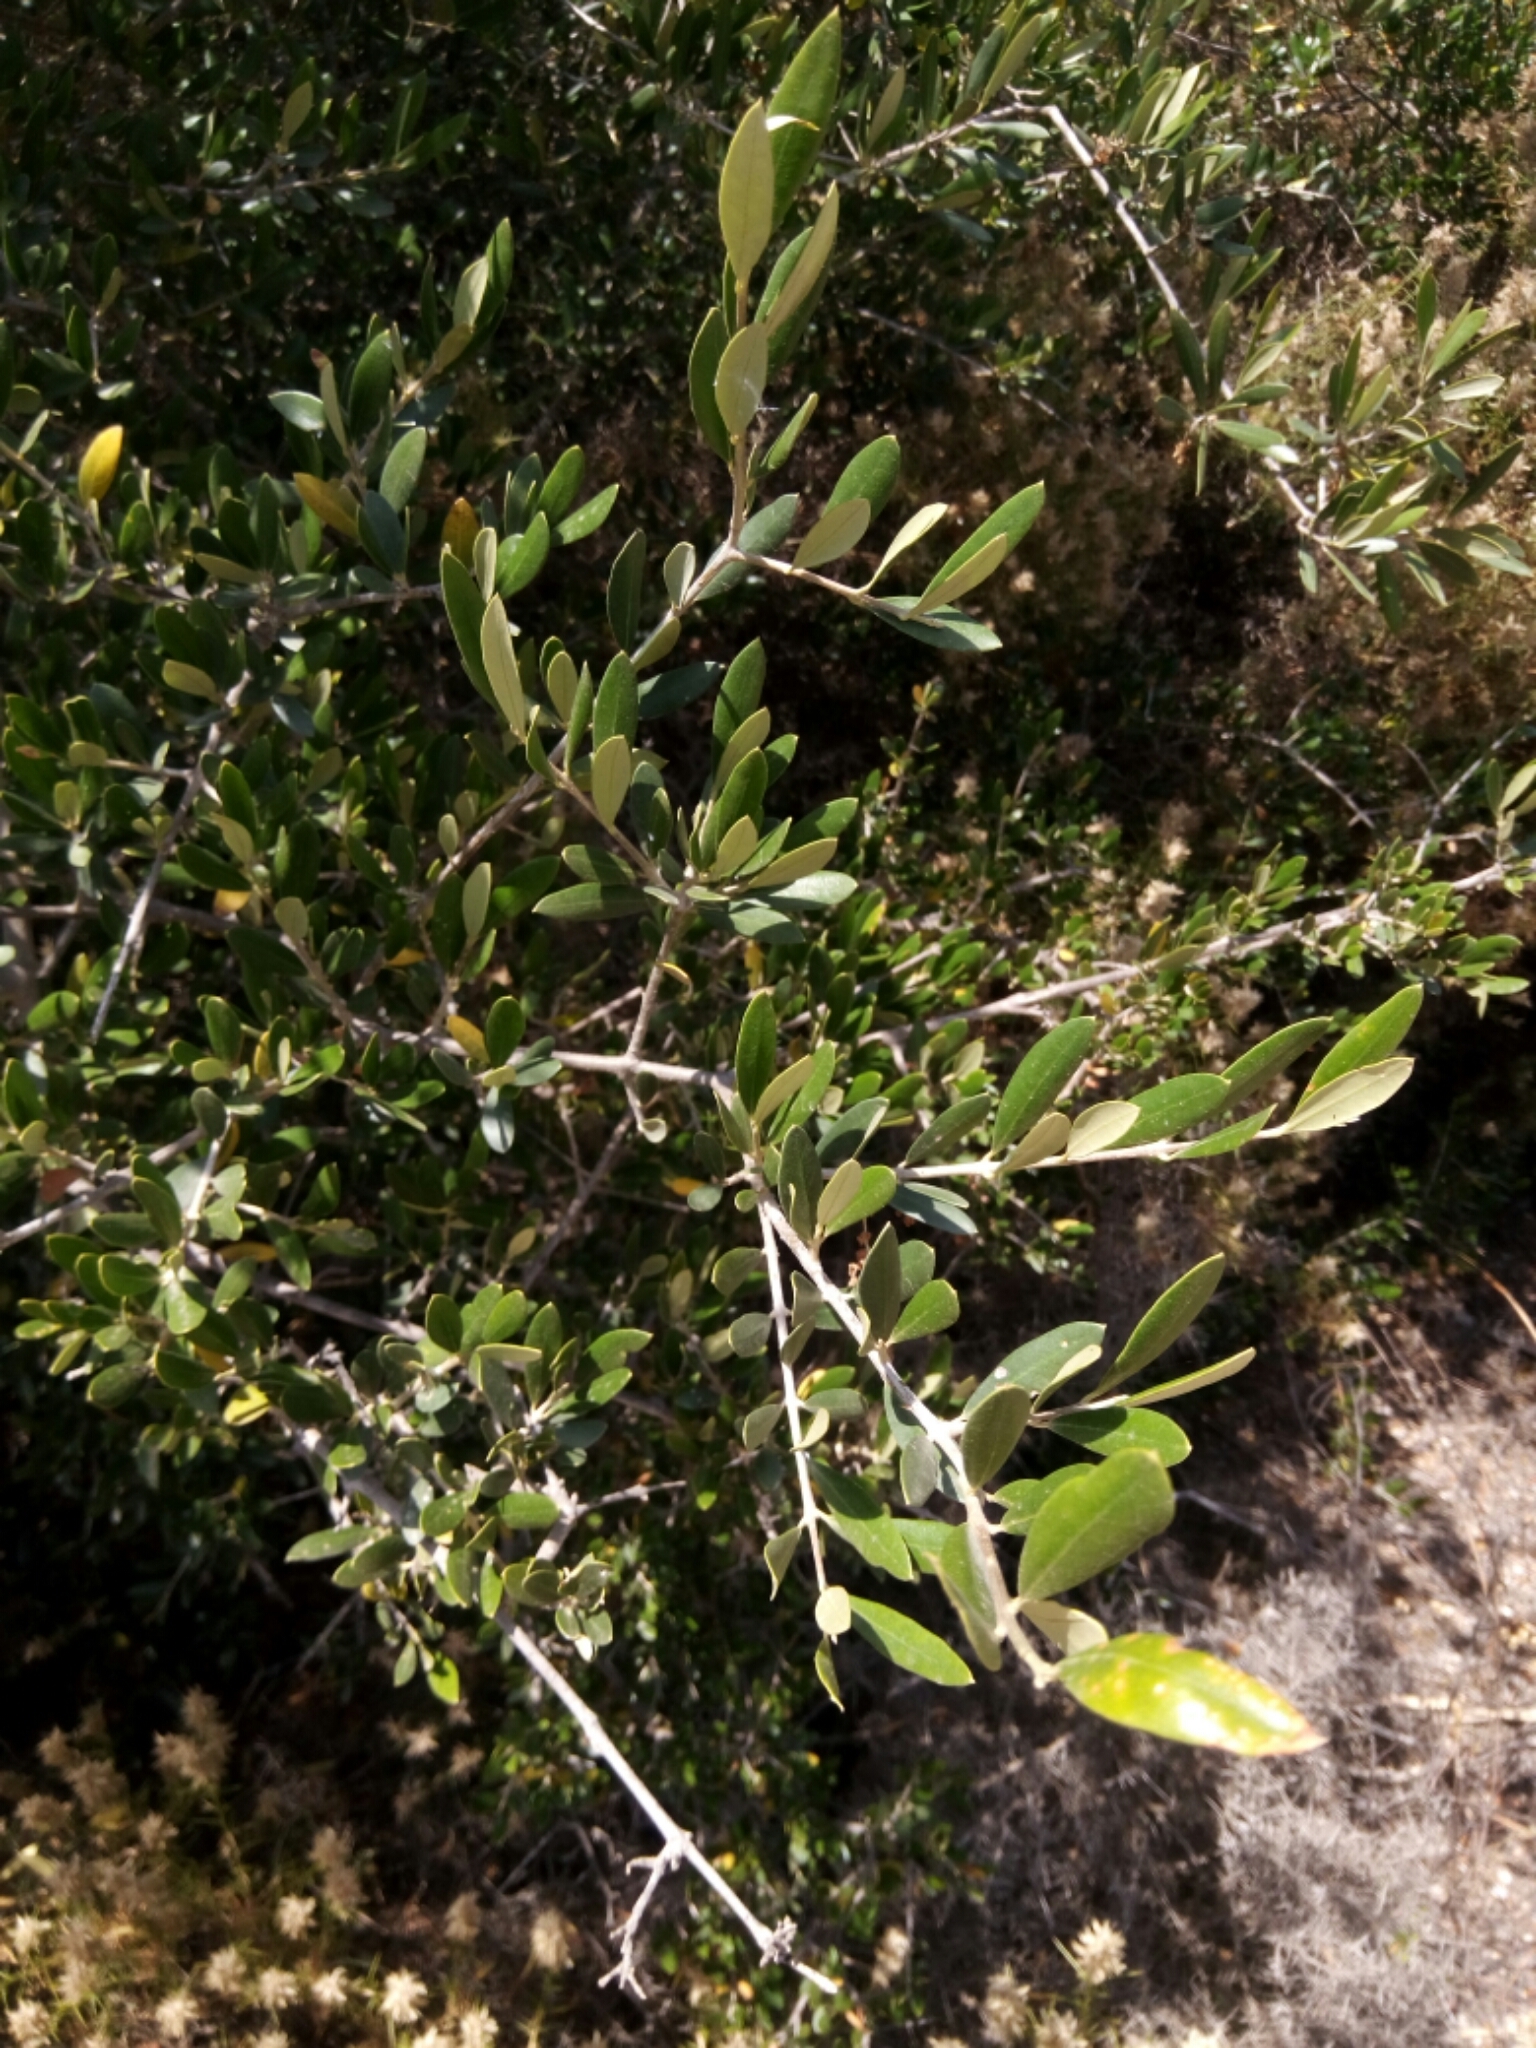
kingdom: Plantae
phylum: Tracheophyta
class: Magnoliopsida
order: Lamiales
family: Oleaceae
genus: Olea
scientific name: Olea europaea
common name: Olive
